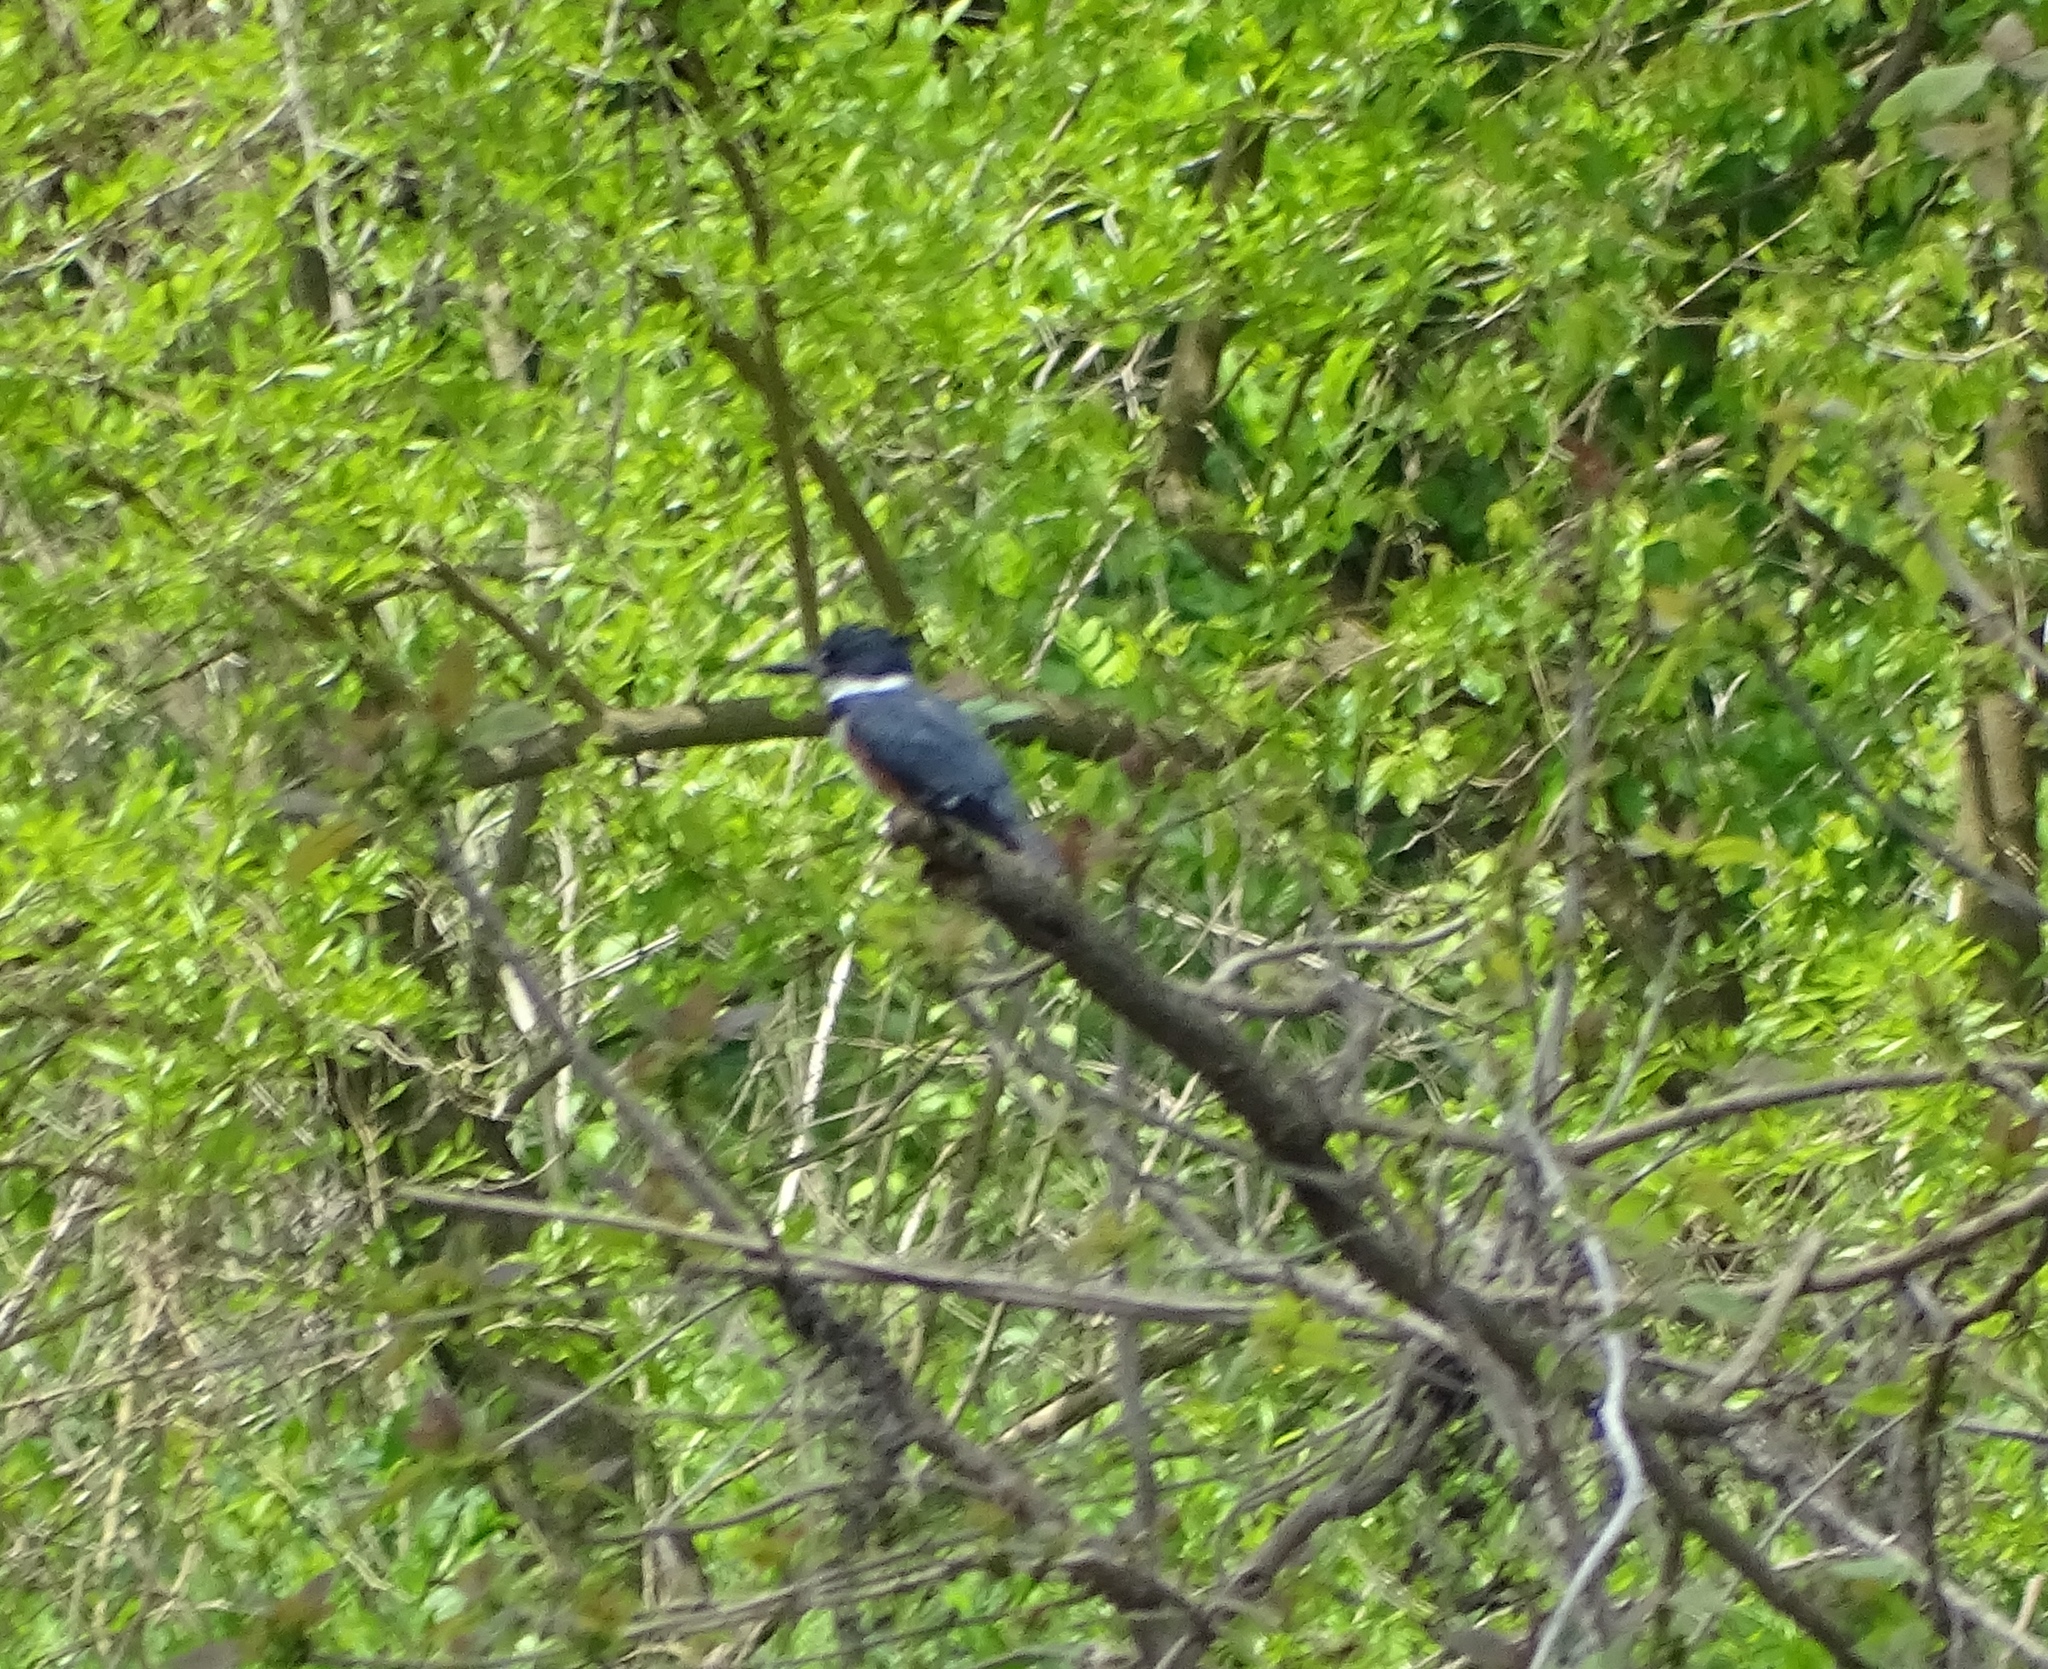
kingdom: Animalia
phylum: Chordata
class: Aves
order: Coraciiformes
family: Alcedinidae
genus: Megaceryle
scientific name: Megaceryle alcyon
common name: Belted kingfisher
